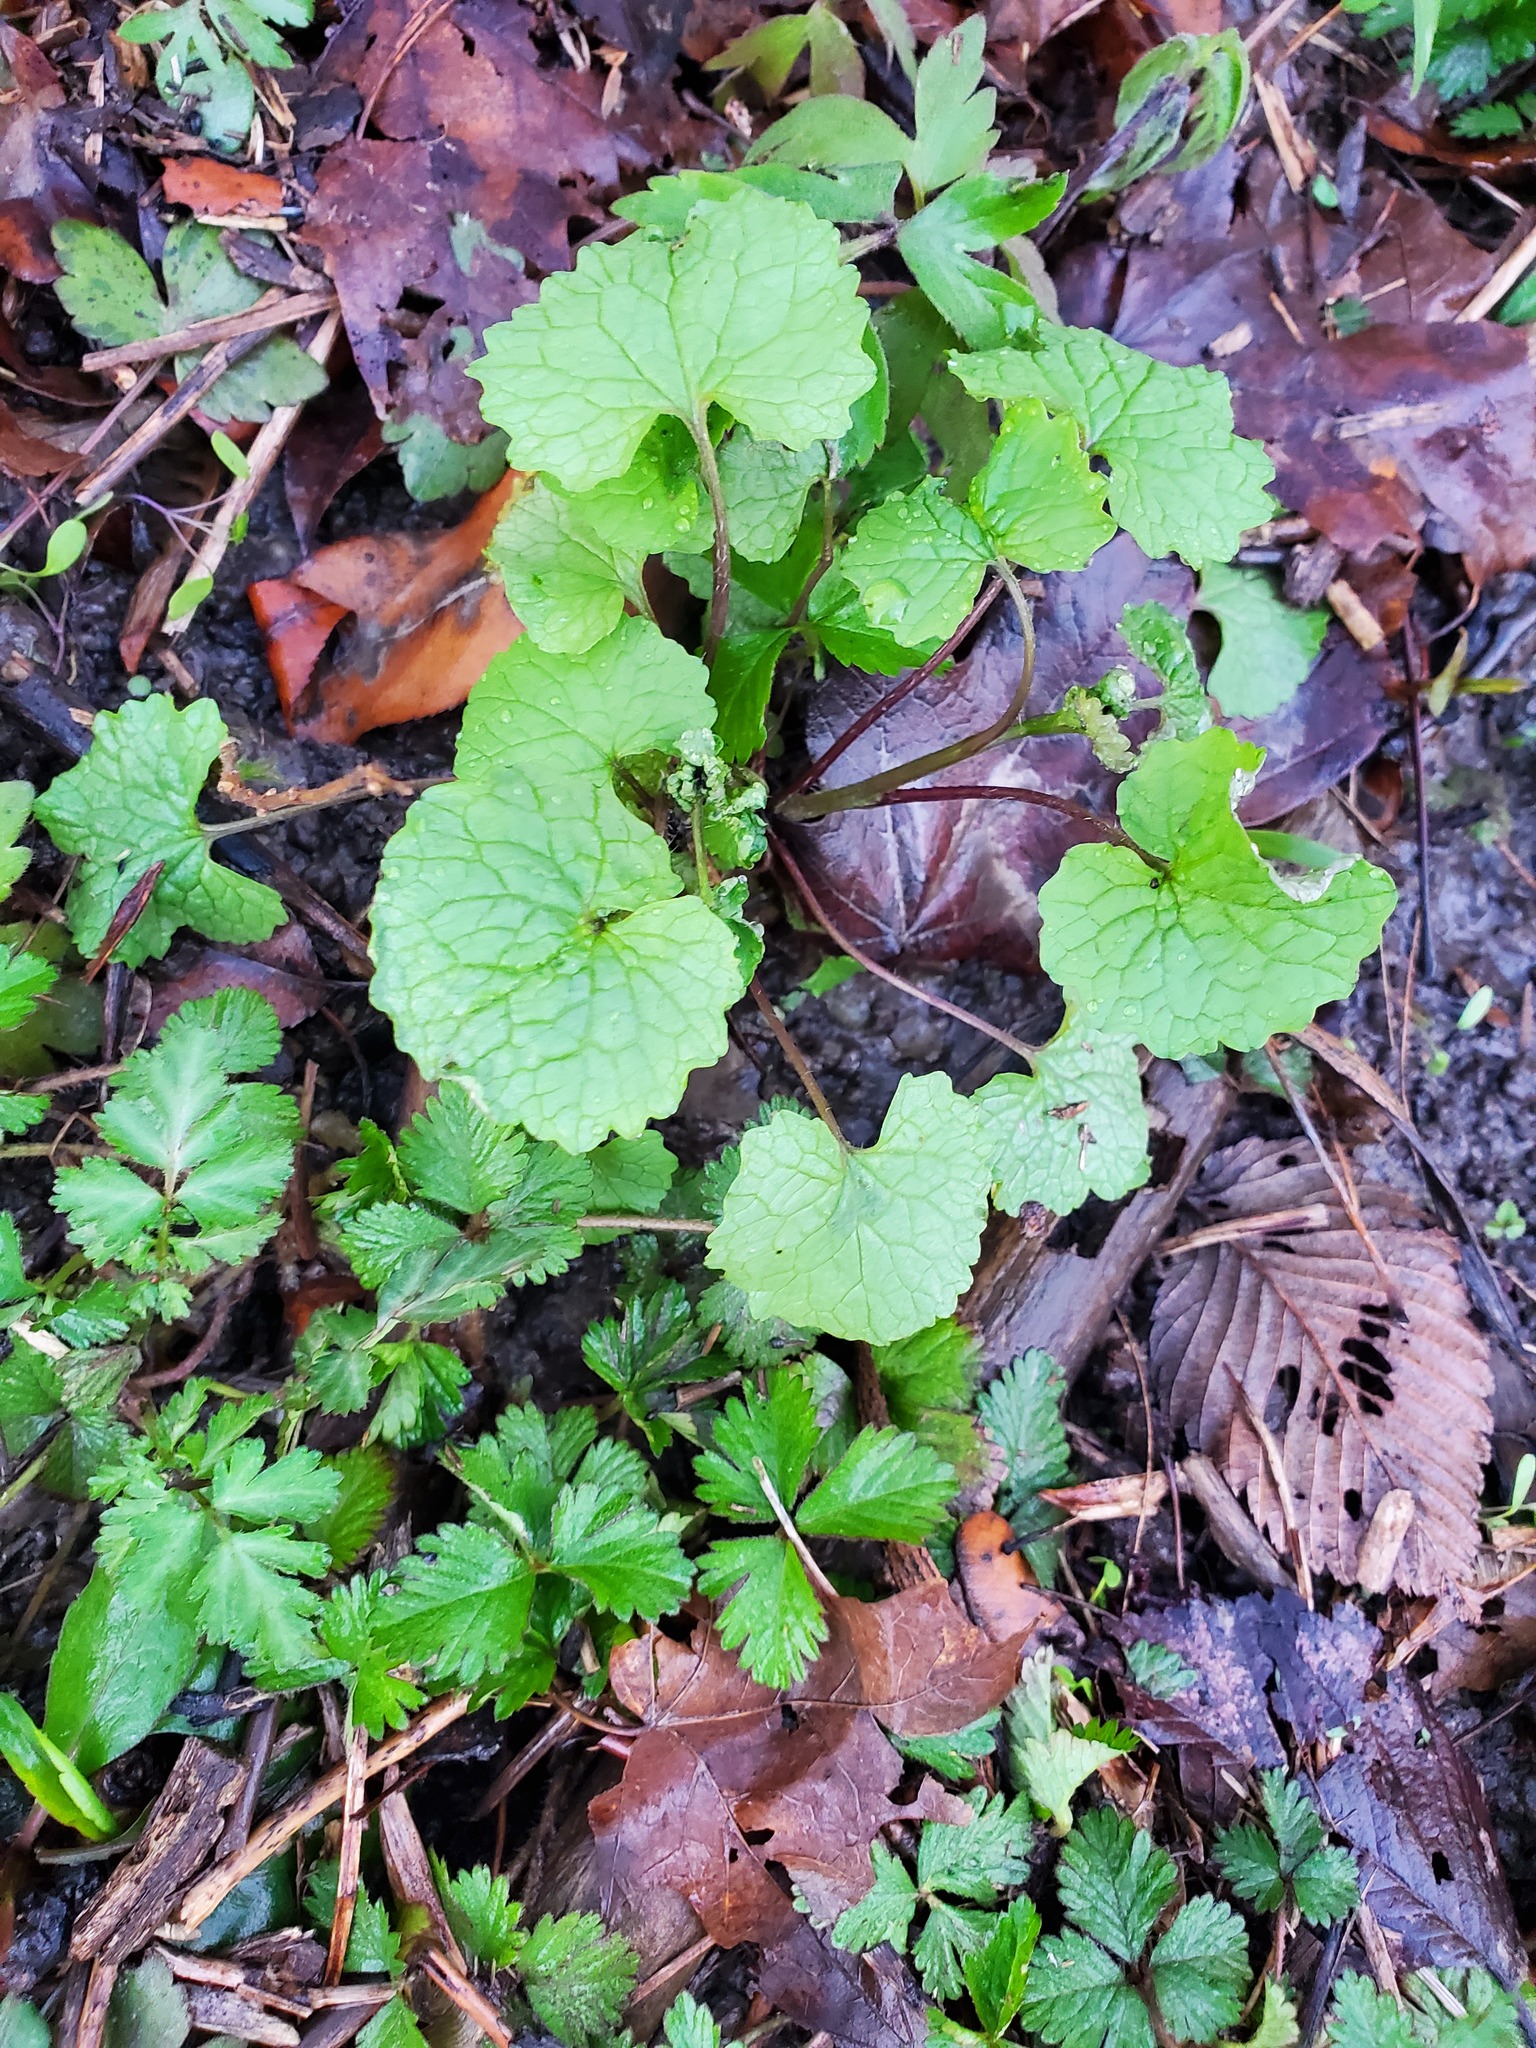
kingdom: Plantae
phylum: Tracheophyta
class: Magnoliopsida
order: Brassicales
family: Brassicaceae
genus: Alliaria
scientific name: Alliaria petiolata
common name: Garlic mustard
